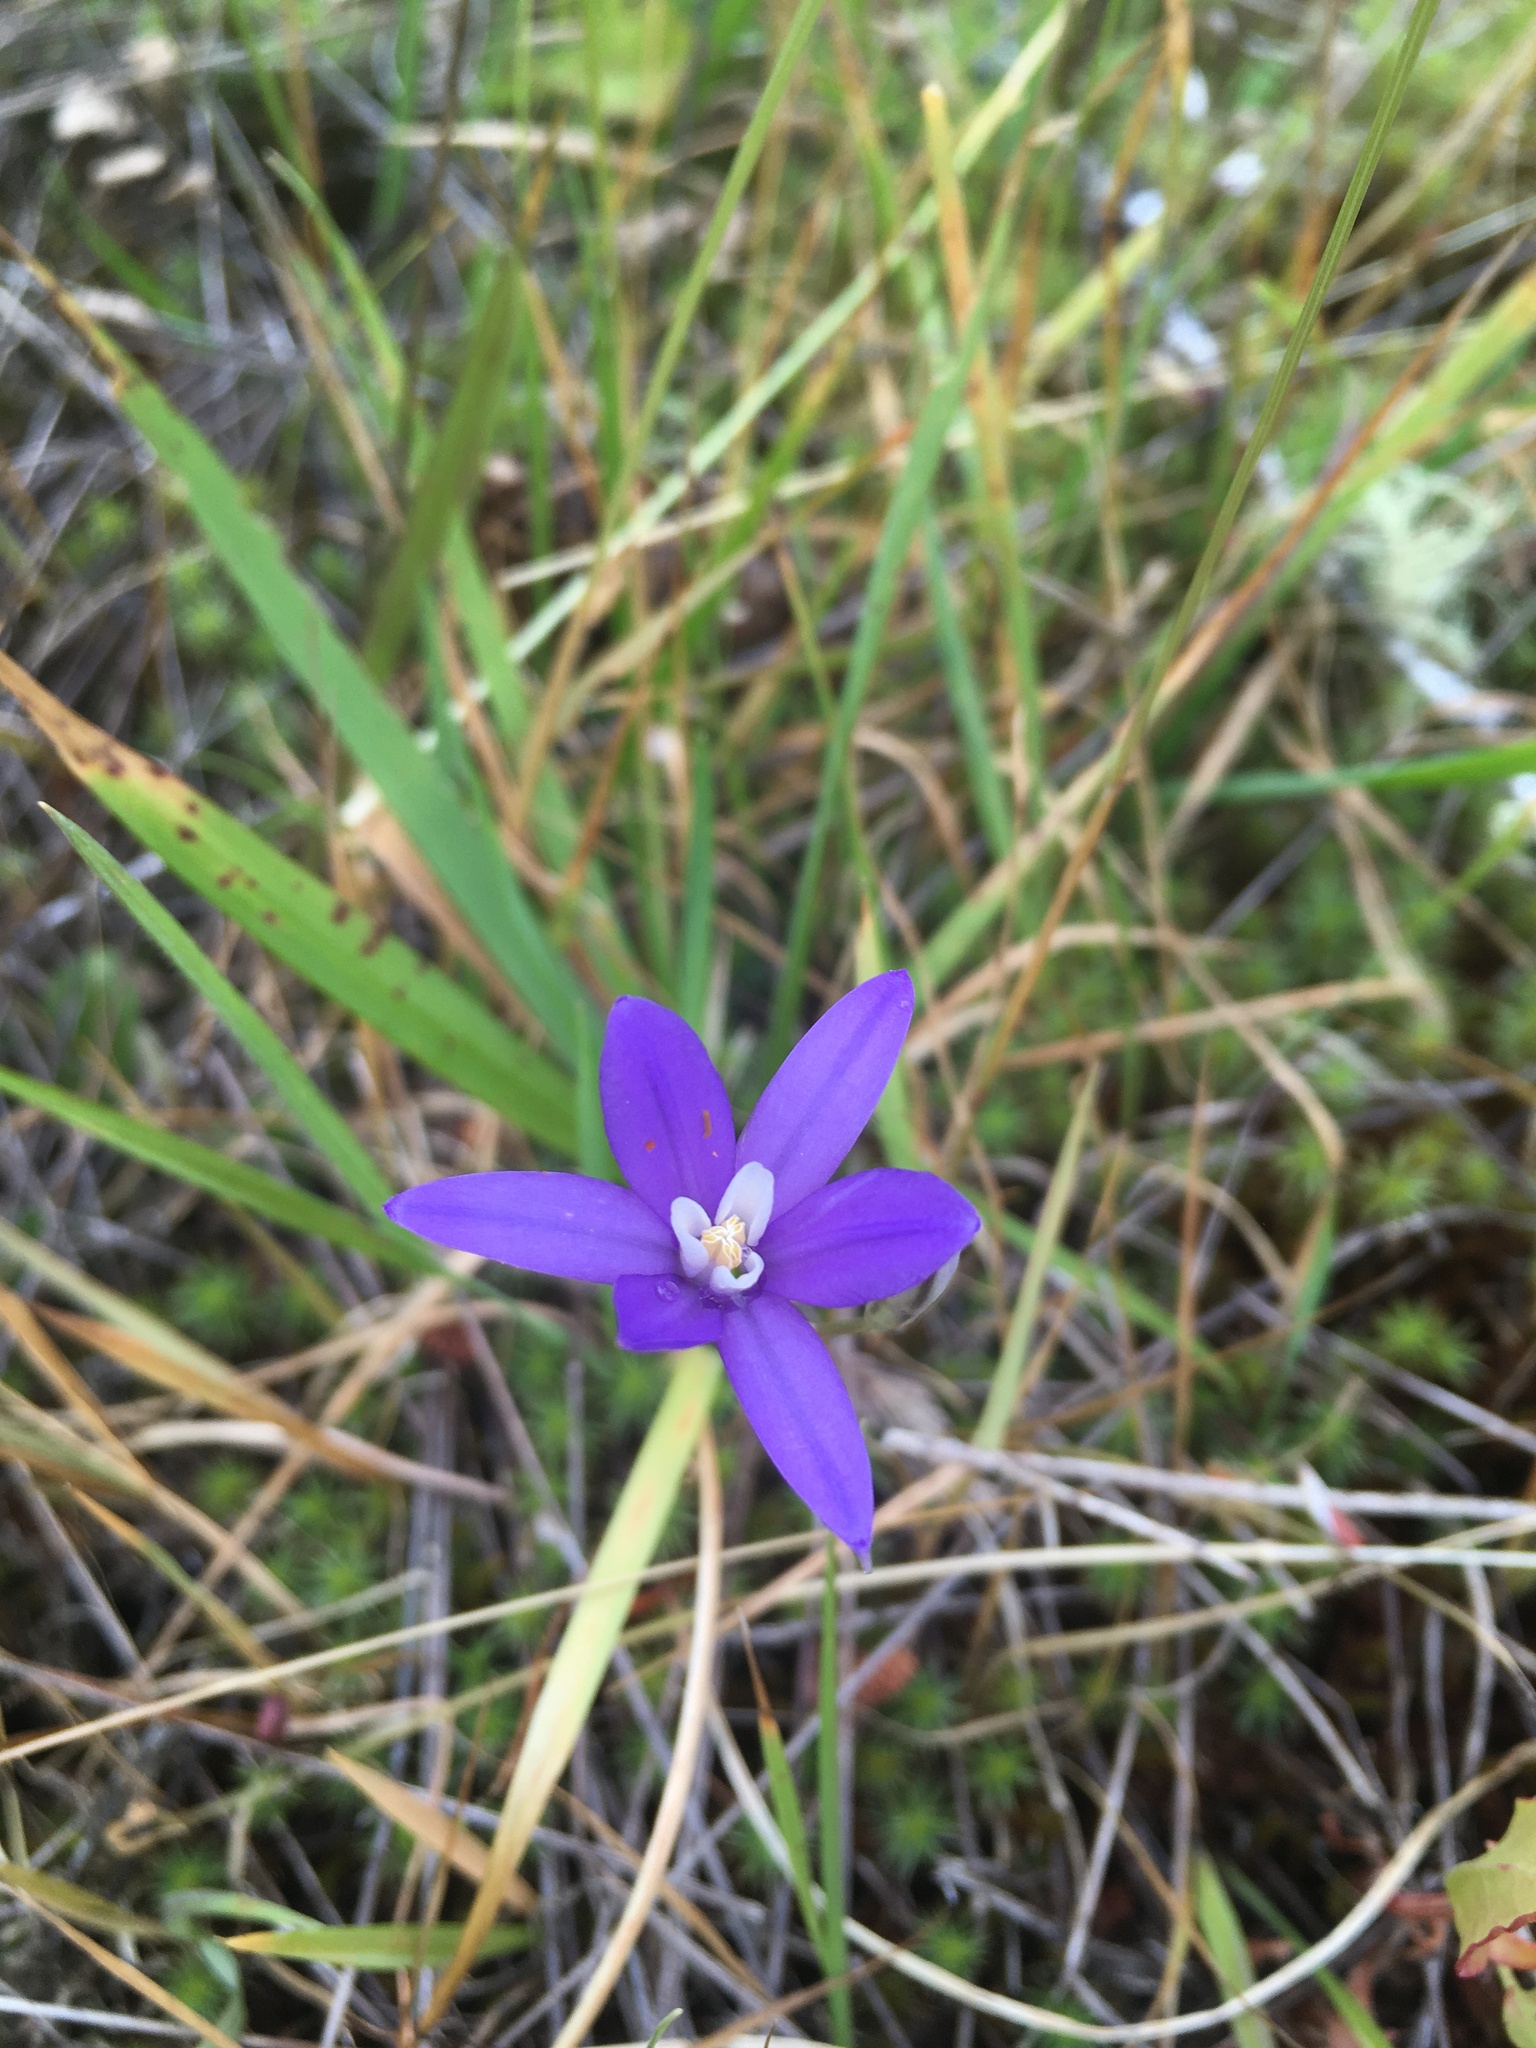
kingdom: Plantae
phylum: Tracheophyta
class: Liliopsida
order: Asparagales
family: Asparagaceae
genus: Brodiaea
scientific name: Brodiaea coronaria
